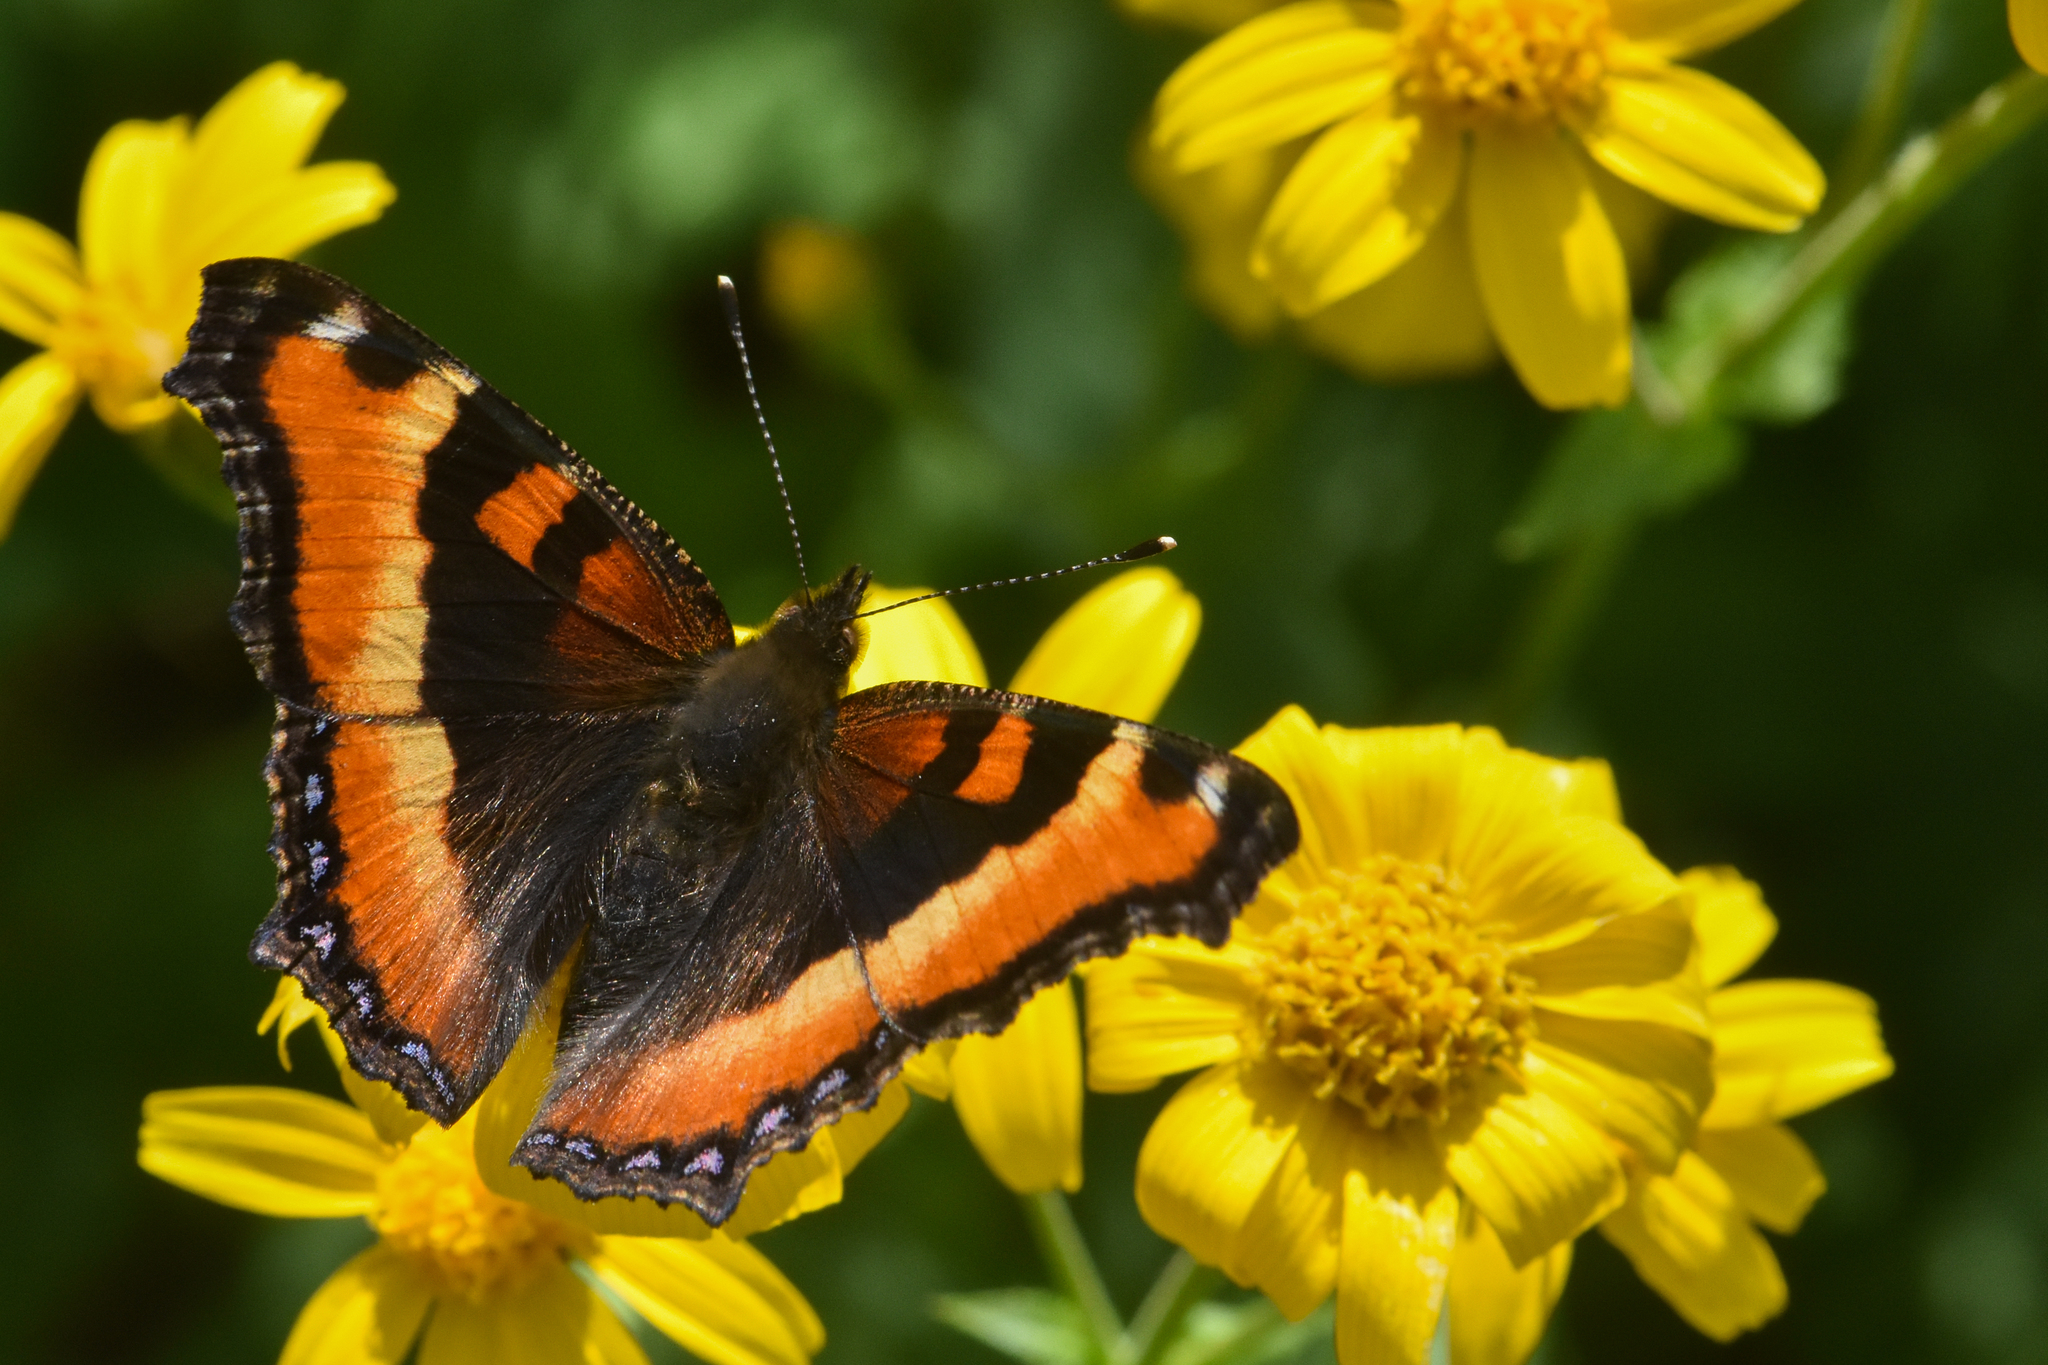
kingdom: Animalia
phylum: Arthropoda
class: Insecta
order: Lepidoptera
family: Nymphalidae
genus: Aglais
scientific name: Aglais milberti
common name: Milbert's tortoiseshell
